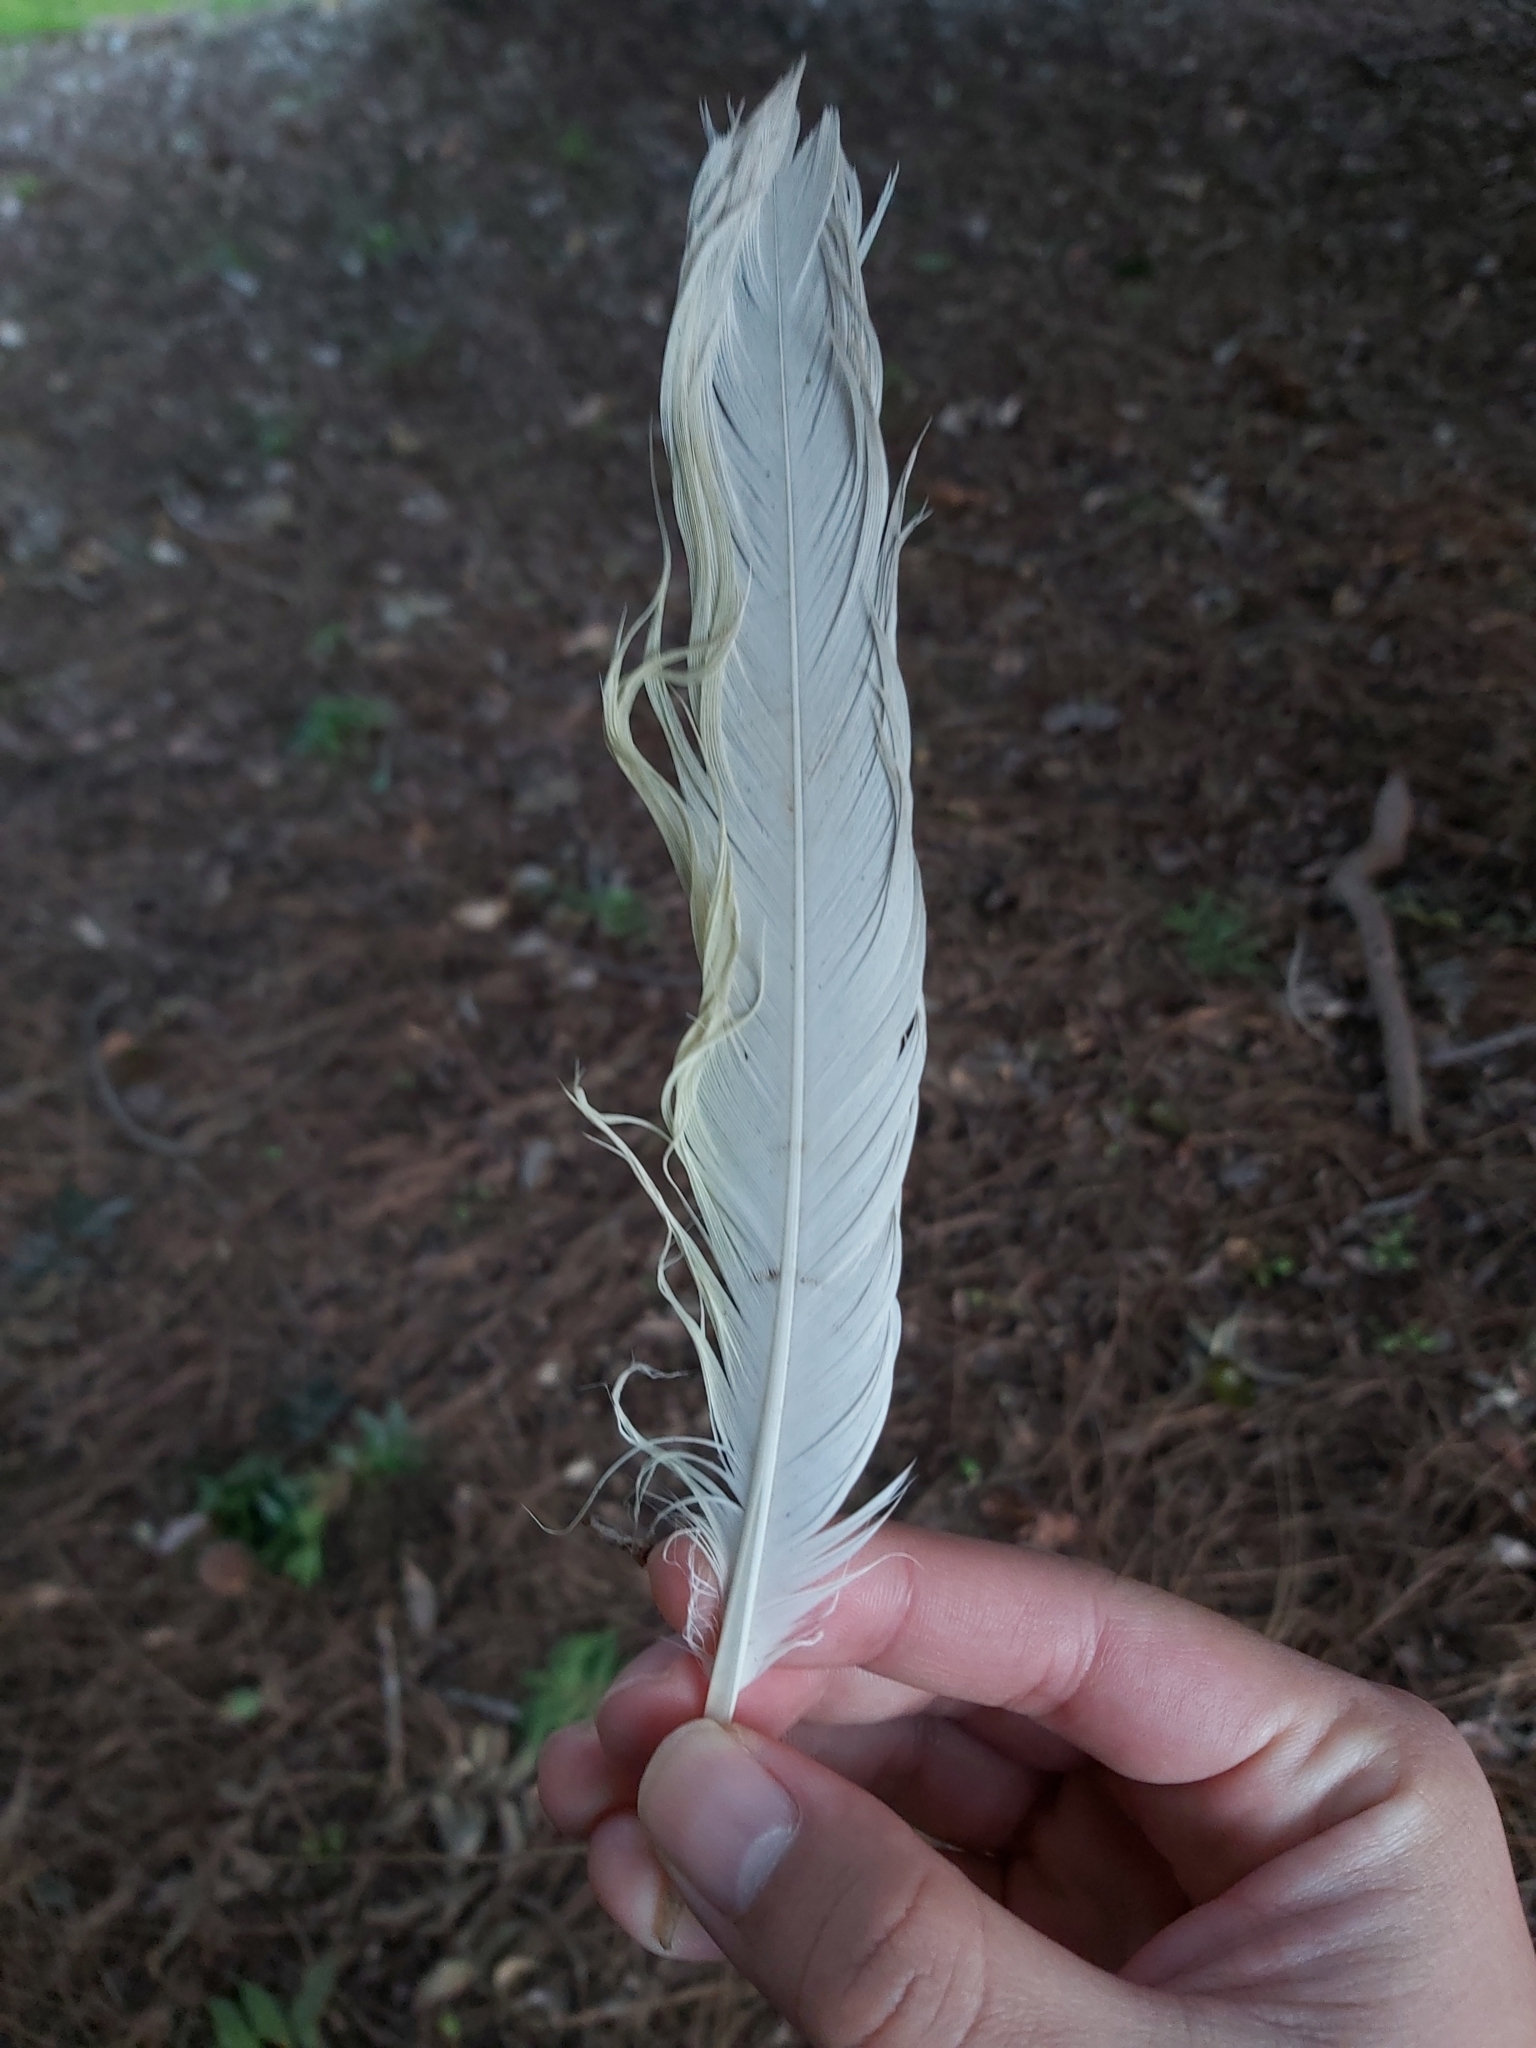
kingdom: Animalia
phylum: Chordata
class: Aves
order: Psittaciformes
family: Psittacidae
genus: Cacatua
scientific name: Cacatua galerita
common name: Sulphur-crested cockatoo
